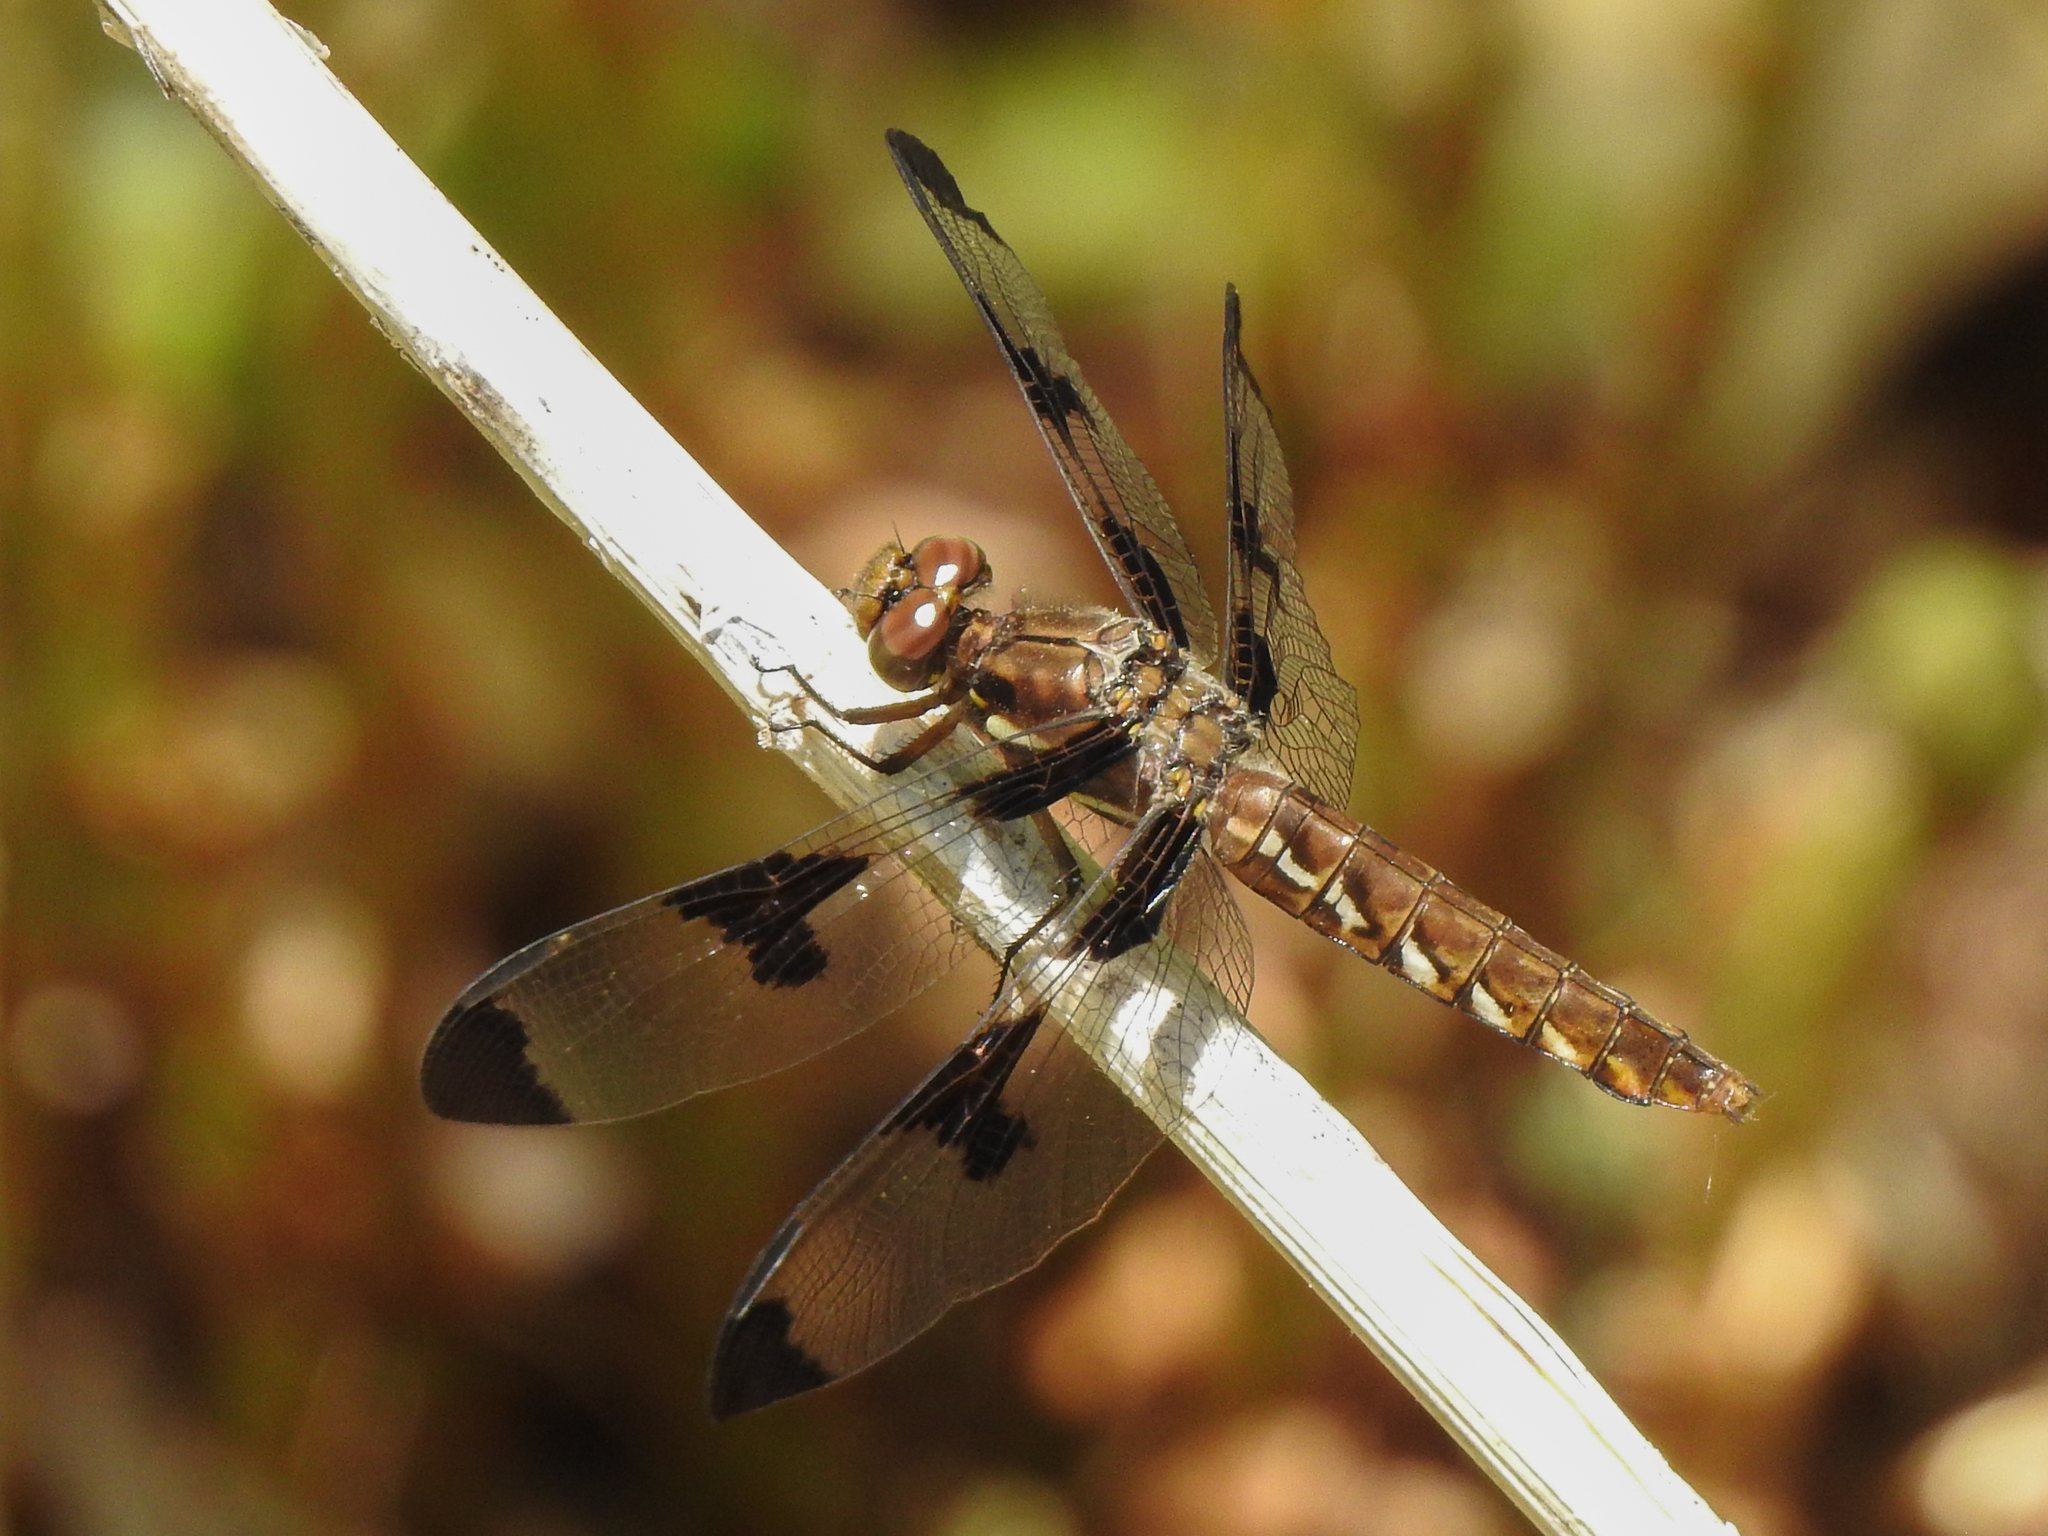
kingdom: Animalia
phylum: Arthropoda
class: Insecta
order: Odonata
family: Libellulidae
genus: Plathemis
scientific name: Plathemis lydia
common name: Common whitetail
